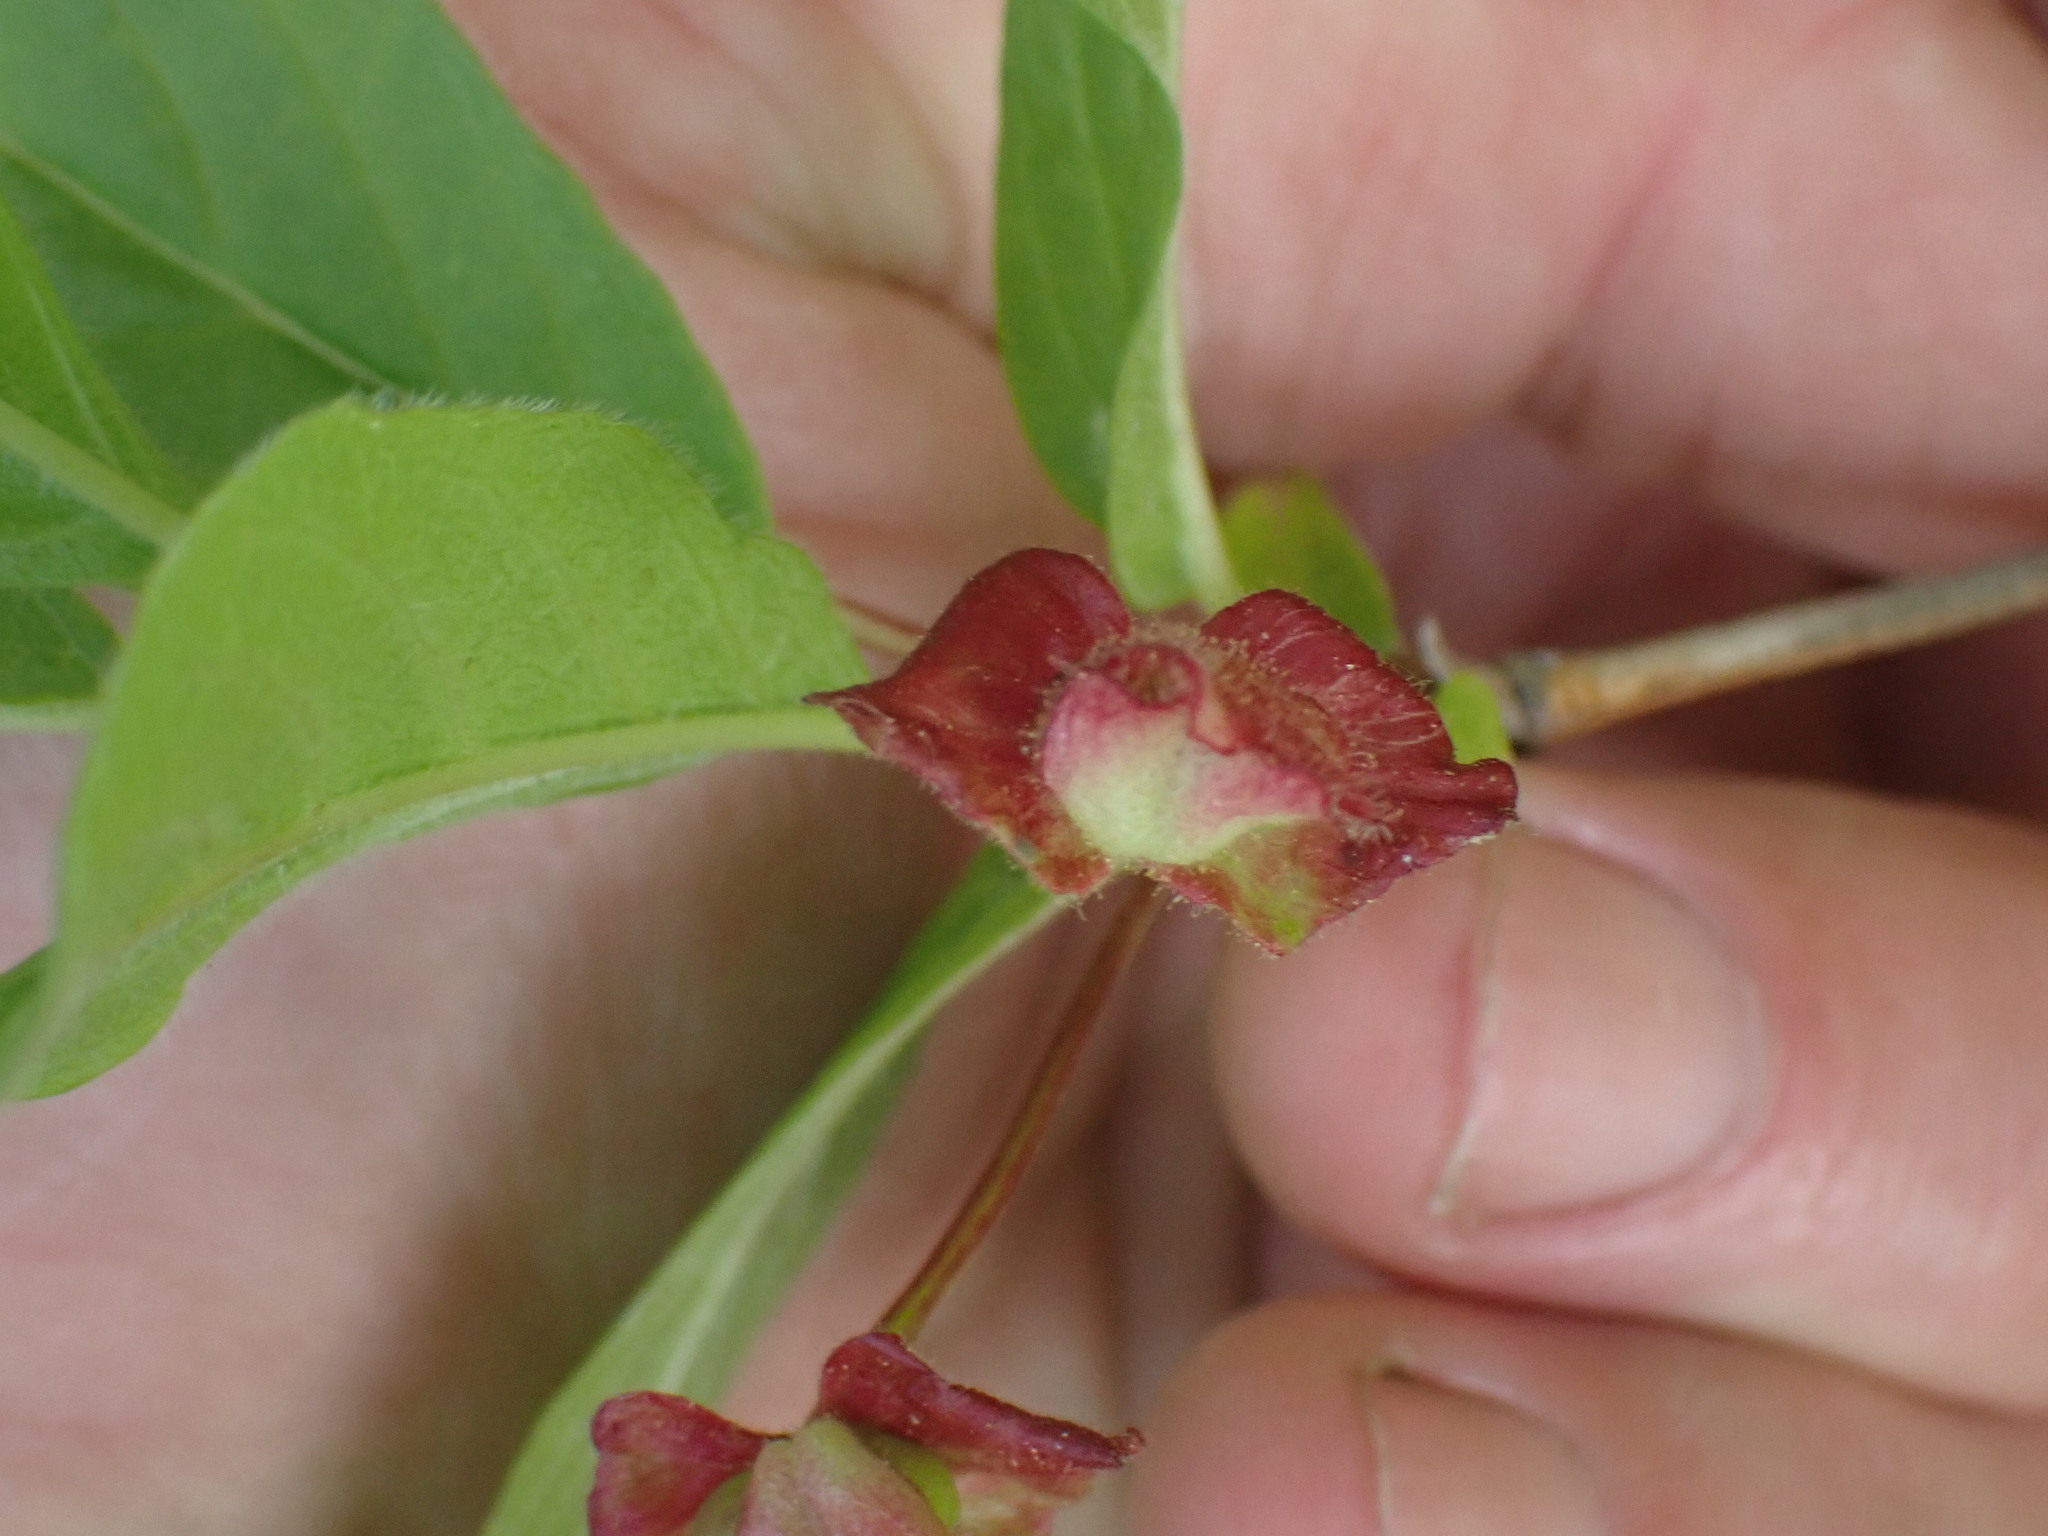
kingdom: Plantae
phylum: Tracheophyta
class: Magnoliopsida
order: Dipsacales
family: Caprifoliaceae
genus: Lonicera
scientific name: Lonicera involucrata
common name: Californian honeysuckle
